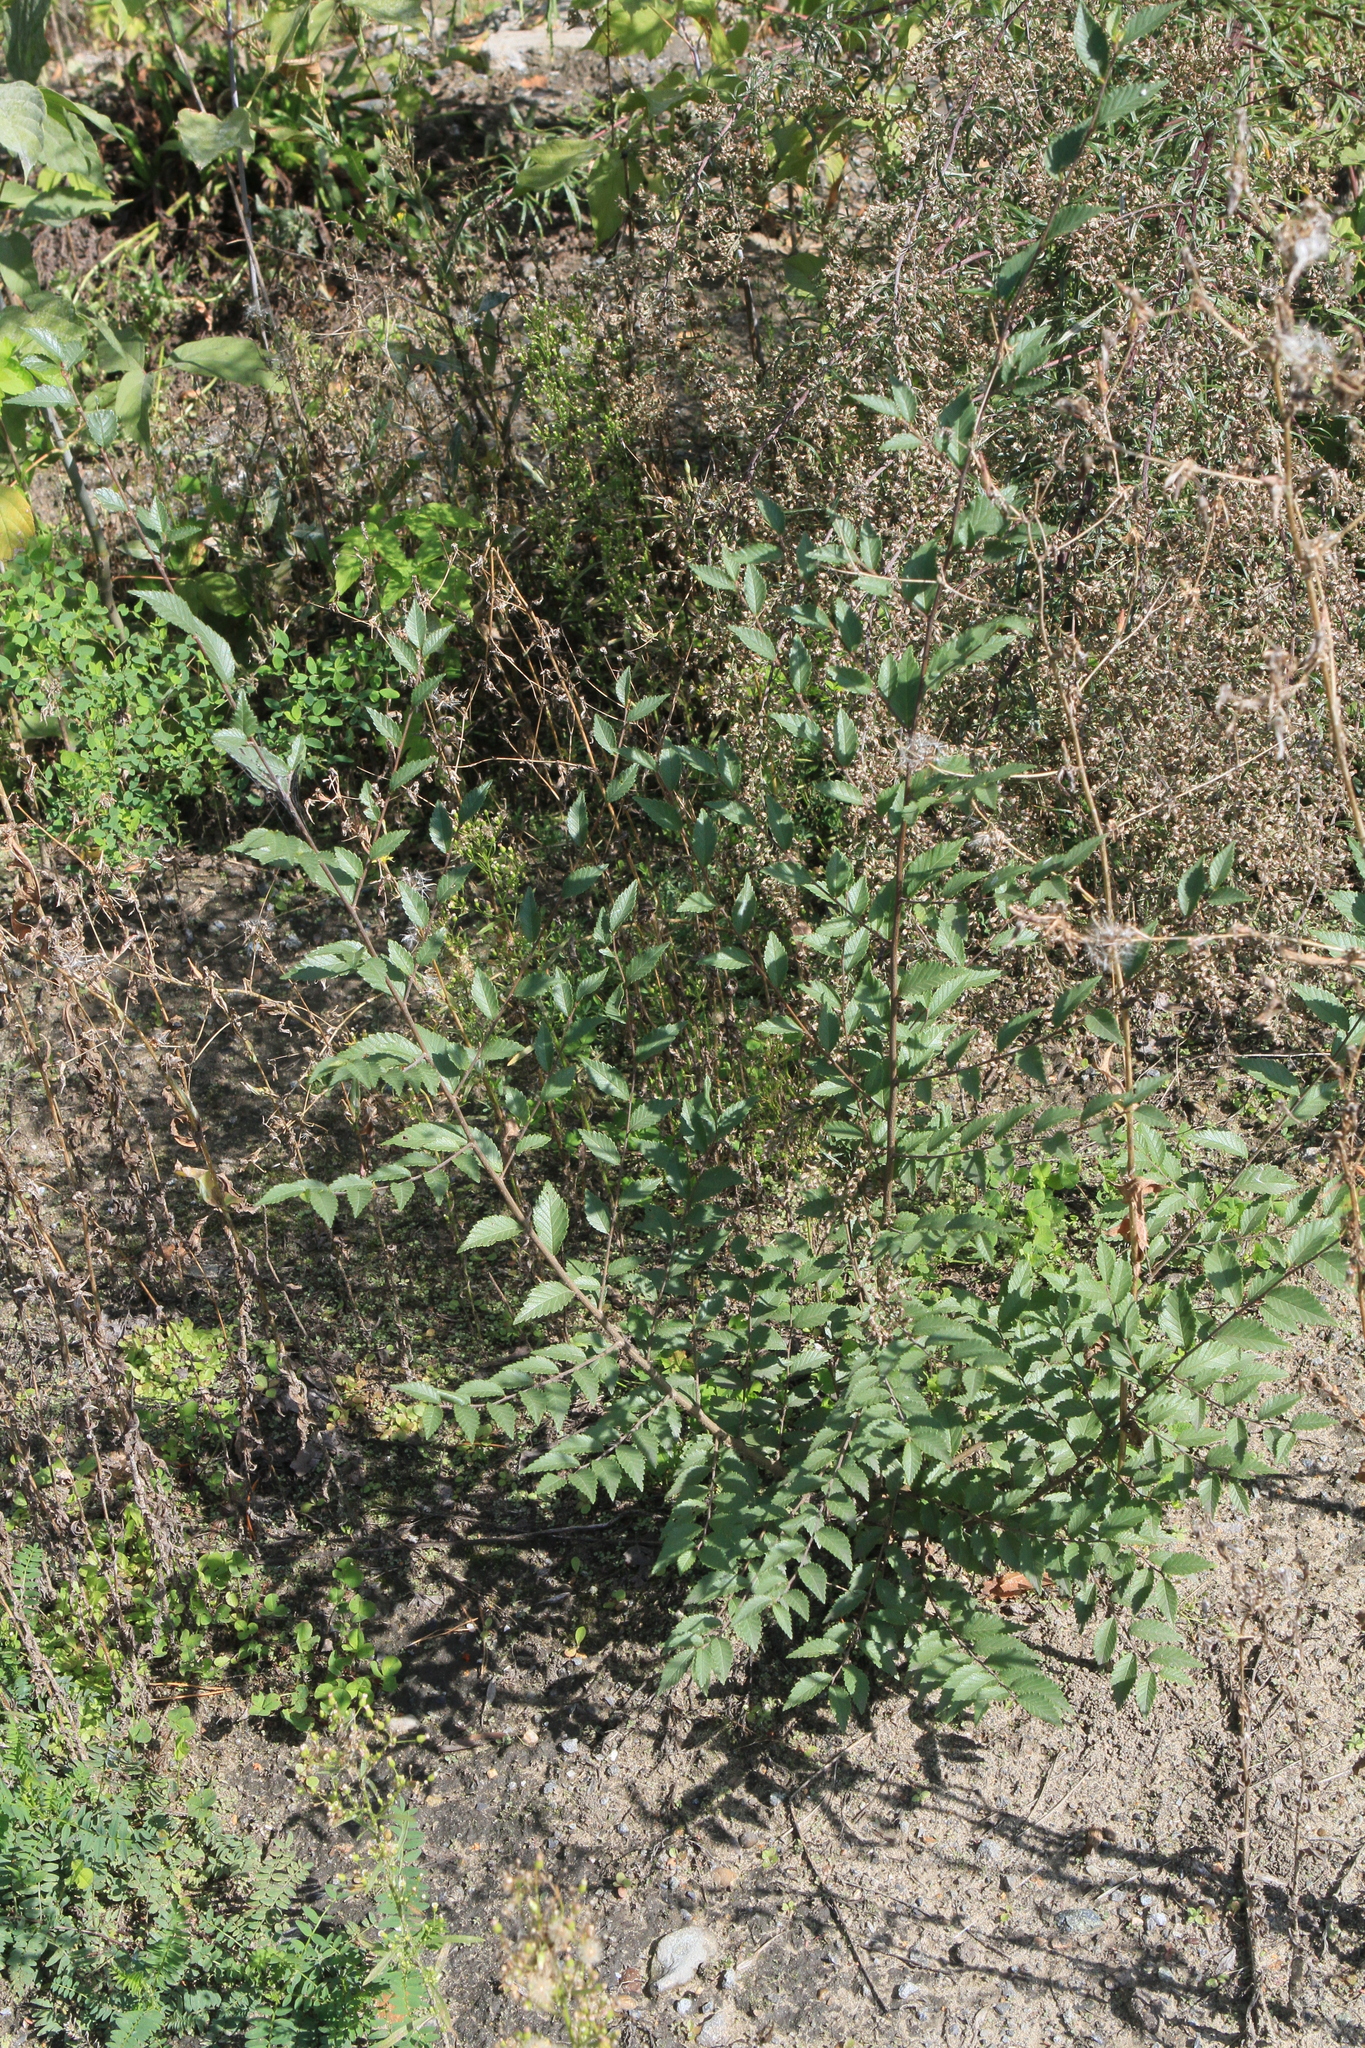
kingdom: Plantae
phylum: Tracheophyta
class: Magnoliopsida
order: Rosales
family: Ulmaceae
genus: Ulmus
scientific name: Ulmus pumila
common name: Siberian elm
